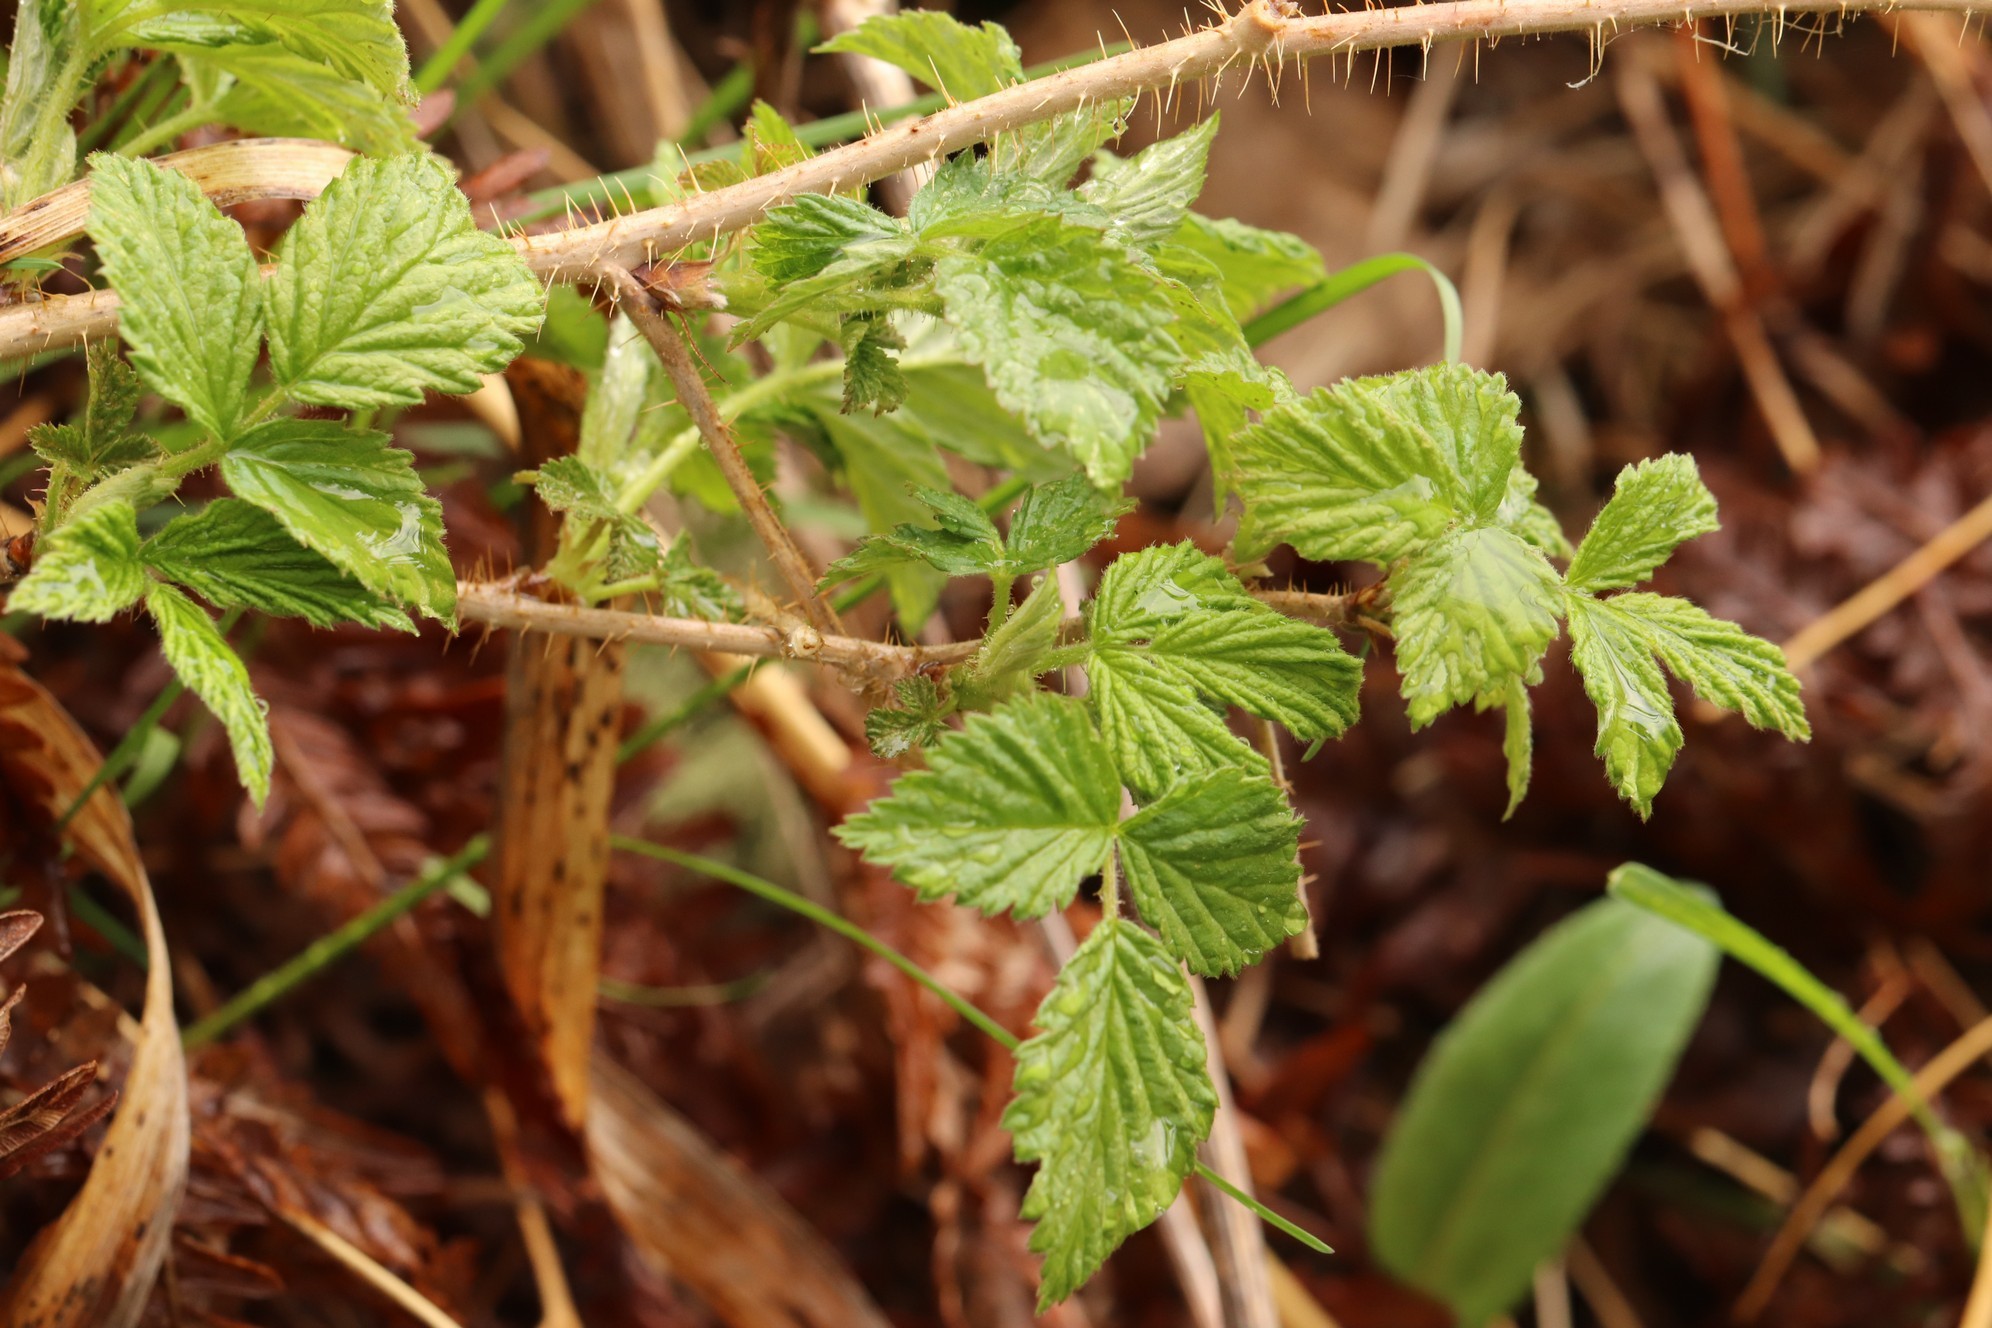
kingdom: Plantae
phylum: Tracheophyta
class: Magnoliopsida
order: Rosales
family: Rosaceae
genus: Rubus
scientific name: Rubus idaeus
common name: Raspberry
